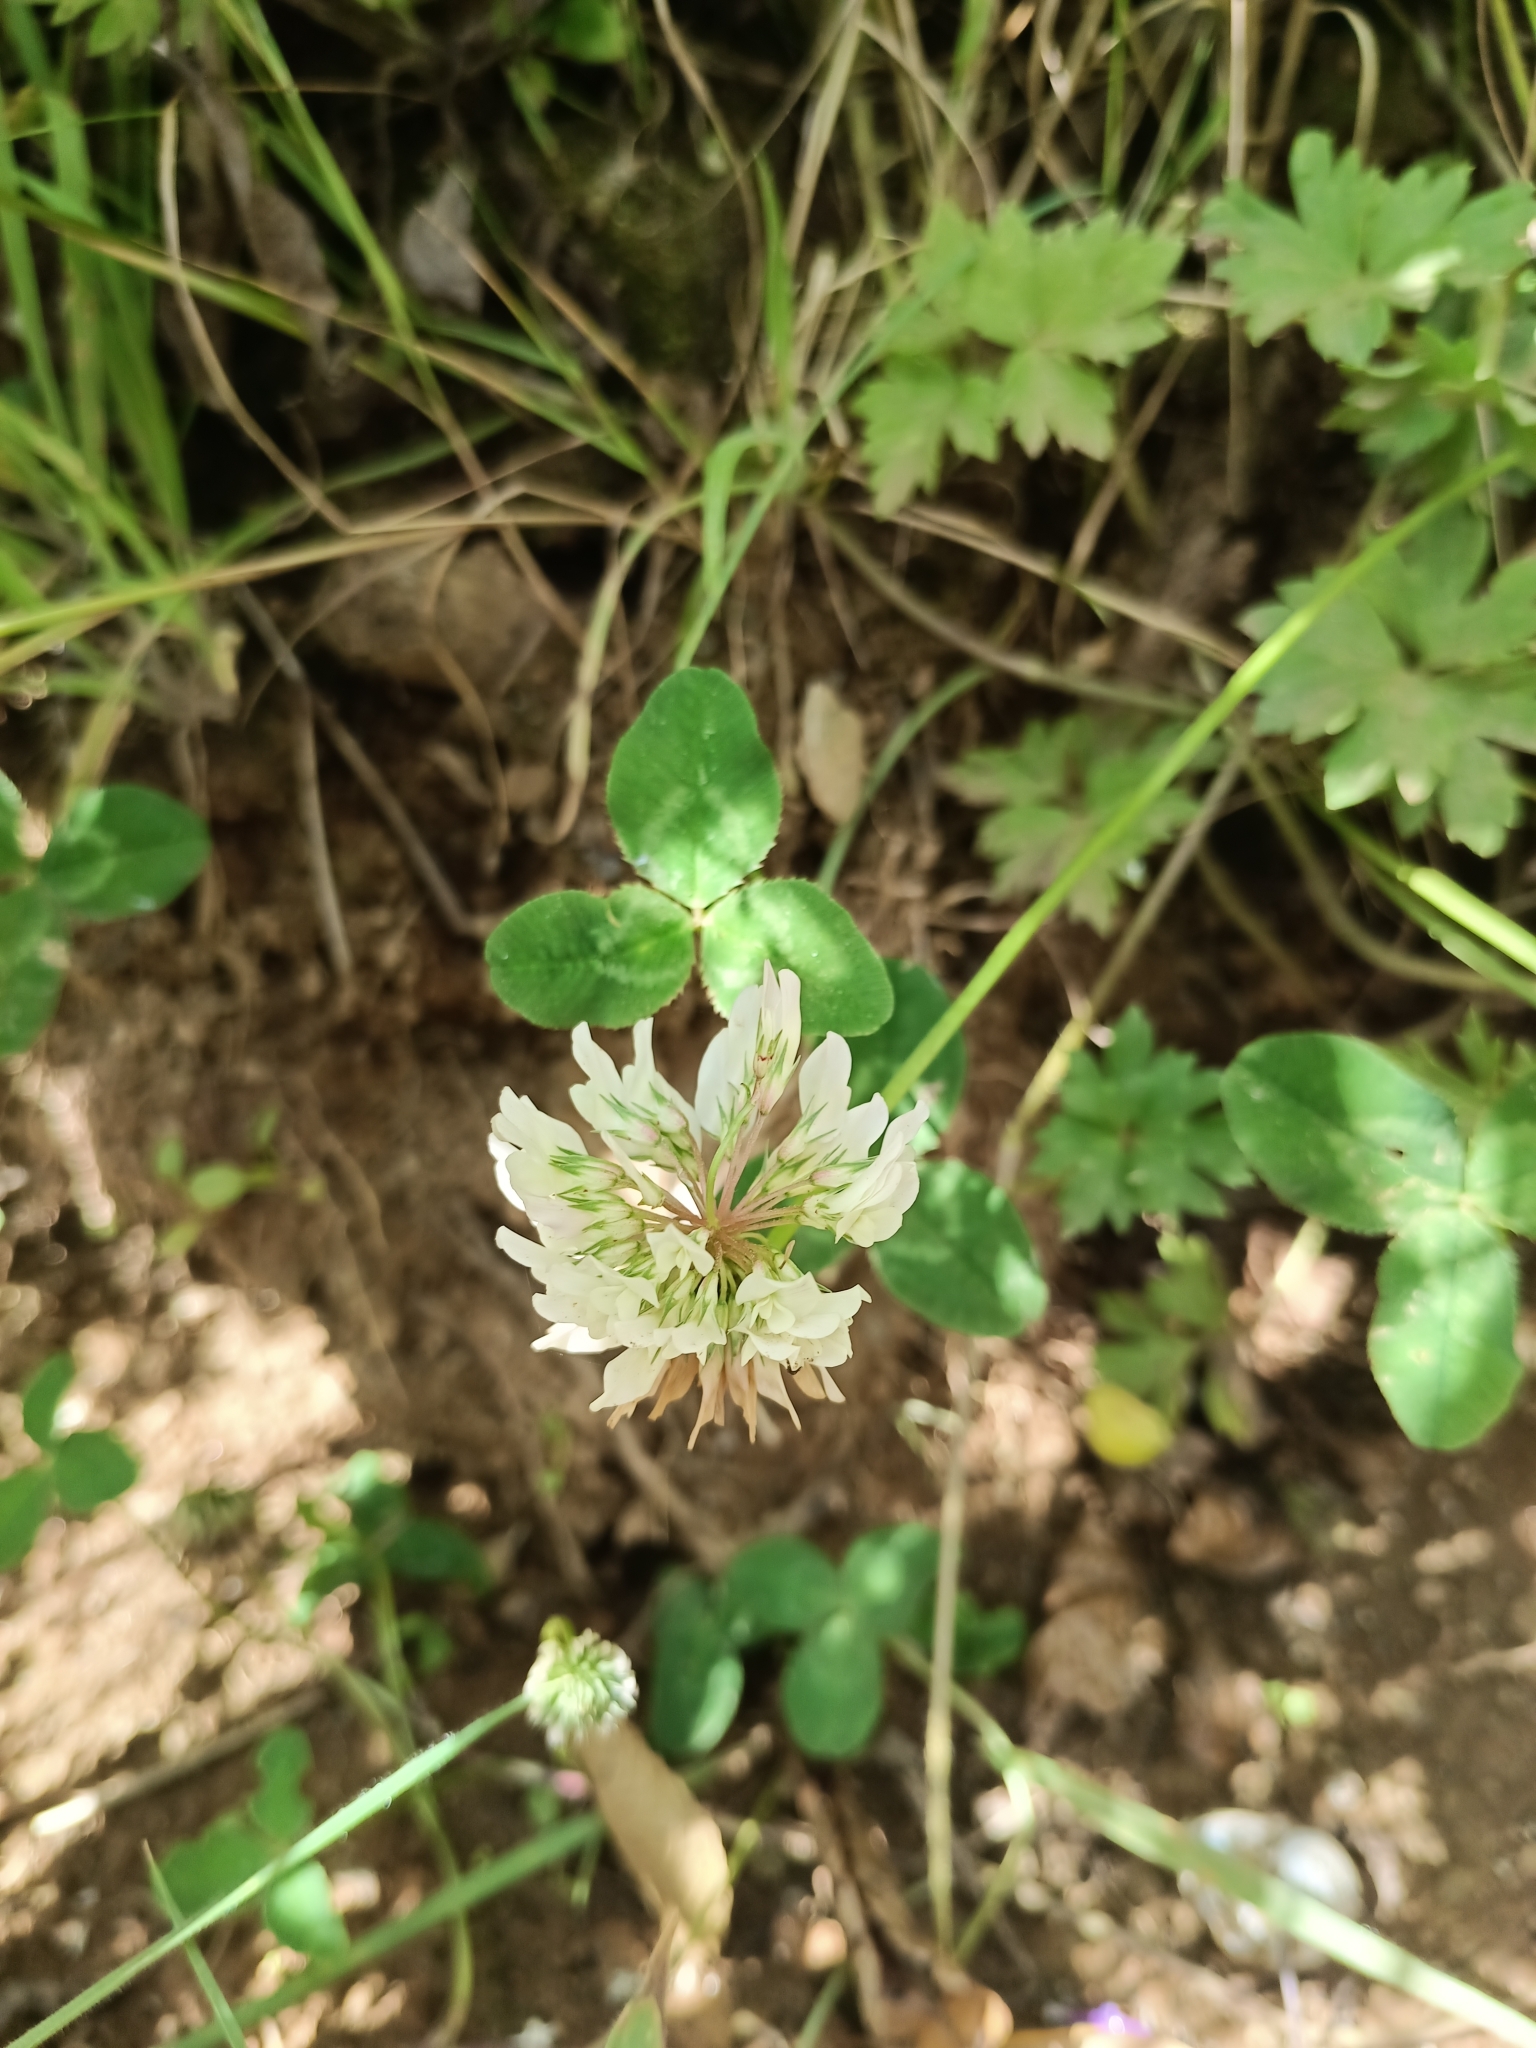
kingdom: Plantae
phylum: Tracheophyta
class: Magnoliopsida
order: Fabales
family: Fabaceae
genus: Trifolium
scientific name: Trifolium repens
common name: White clover
